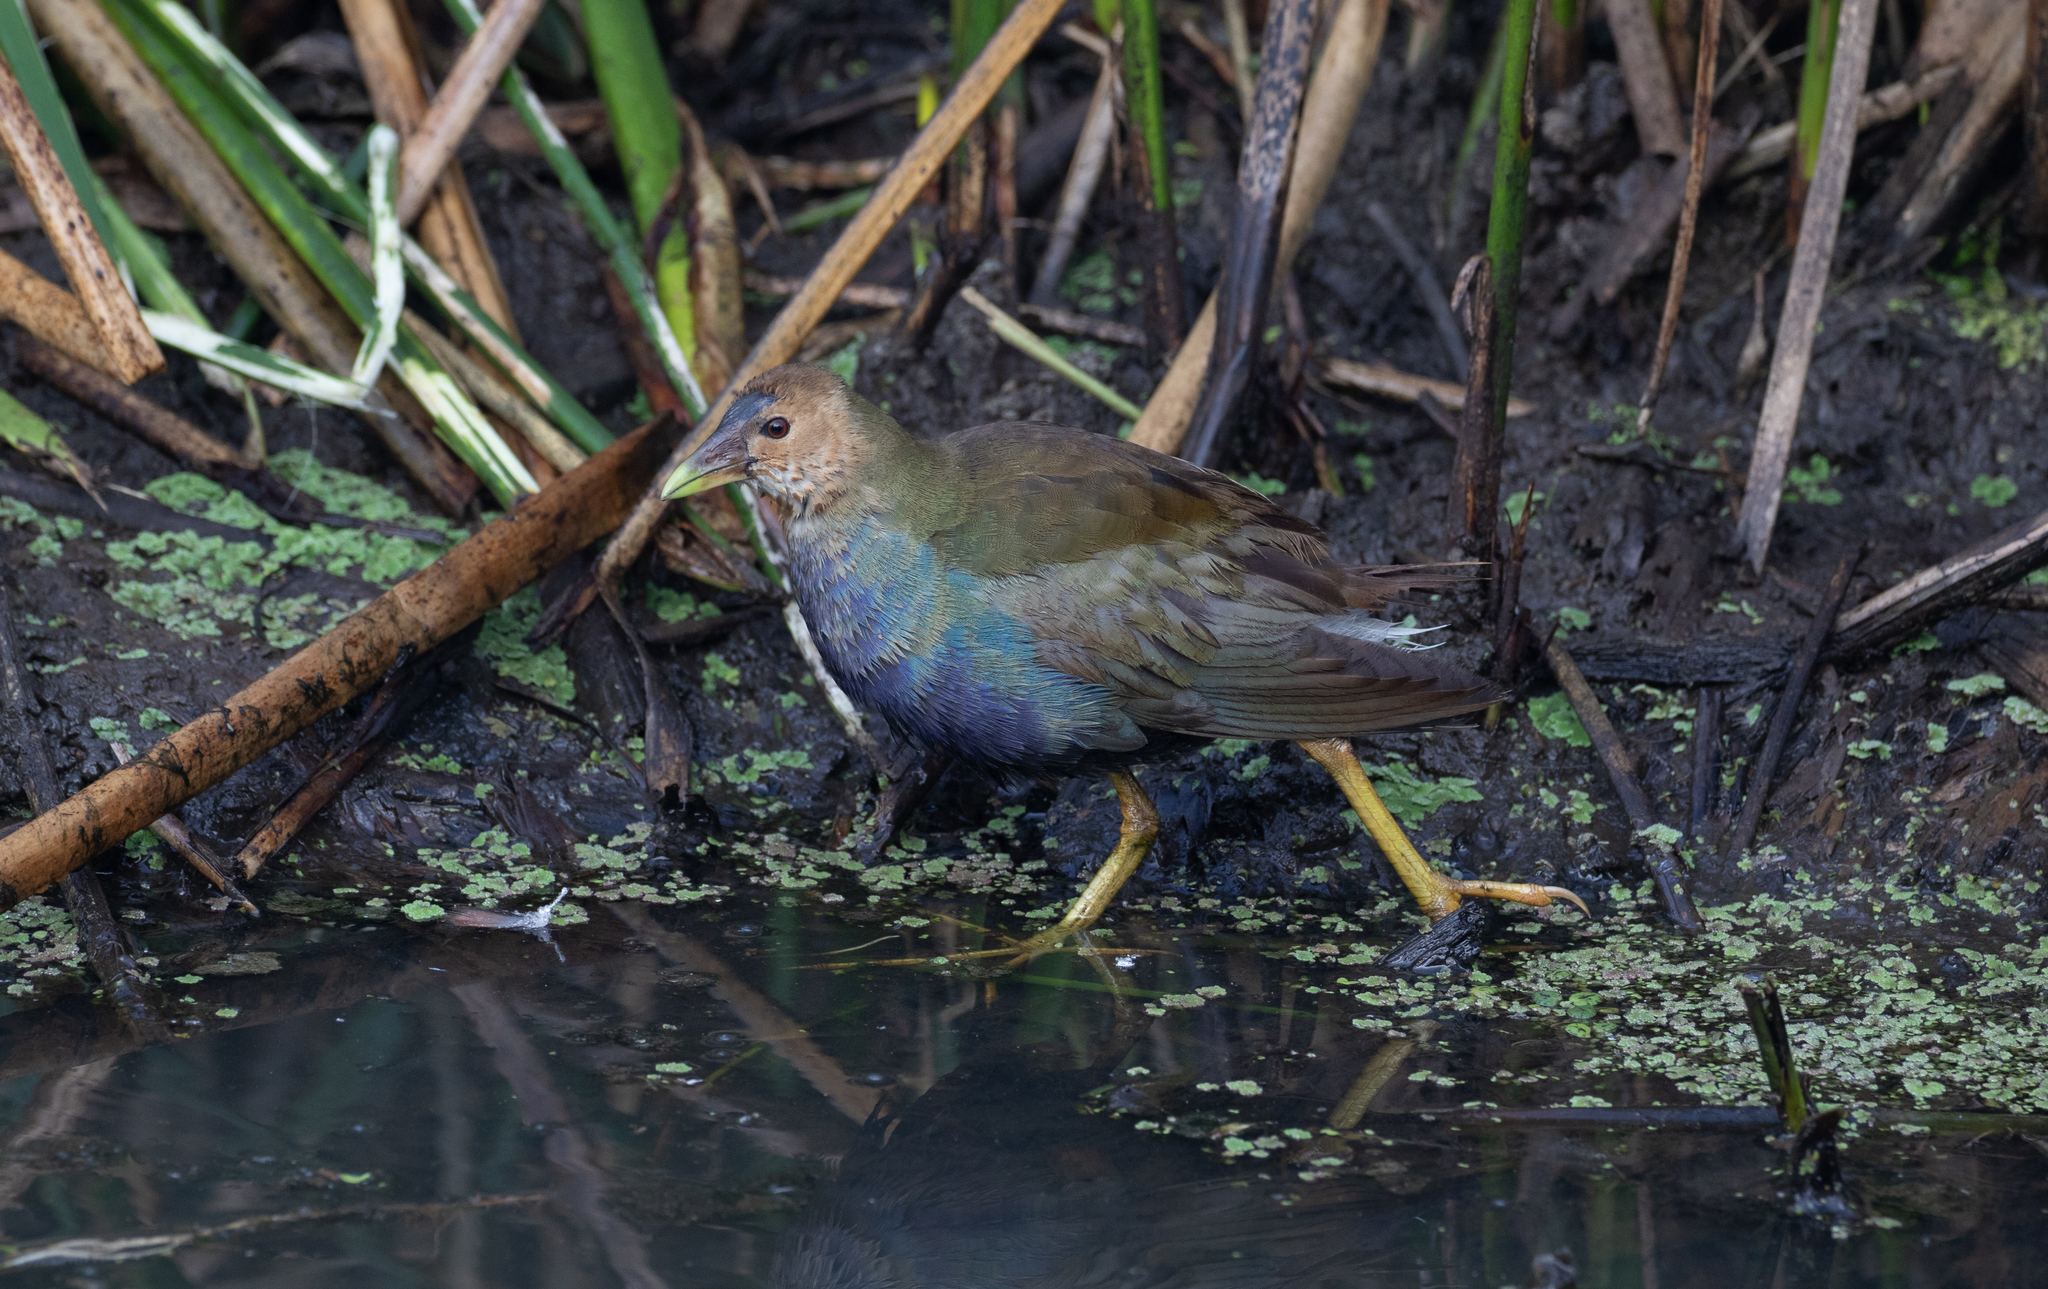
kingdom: Animalia
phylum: Chordata
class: Aves
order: Gruiformes
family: Rallidae
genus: Porphyrio
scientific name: Porphyrio martinica
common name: Purple gallinule
